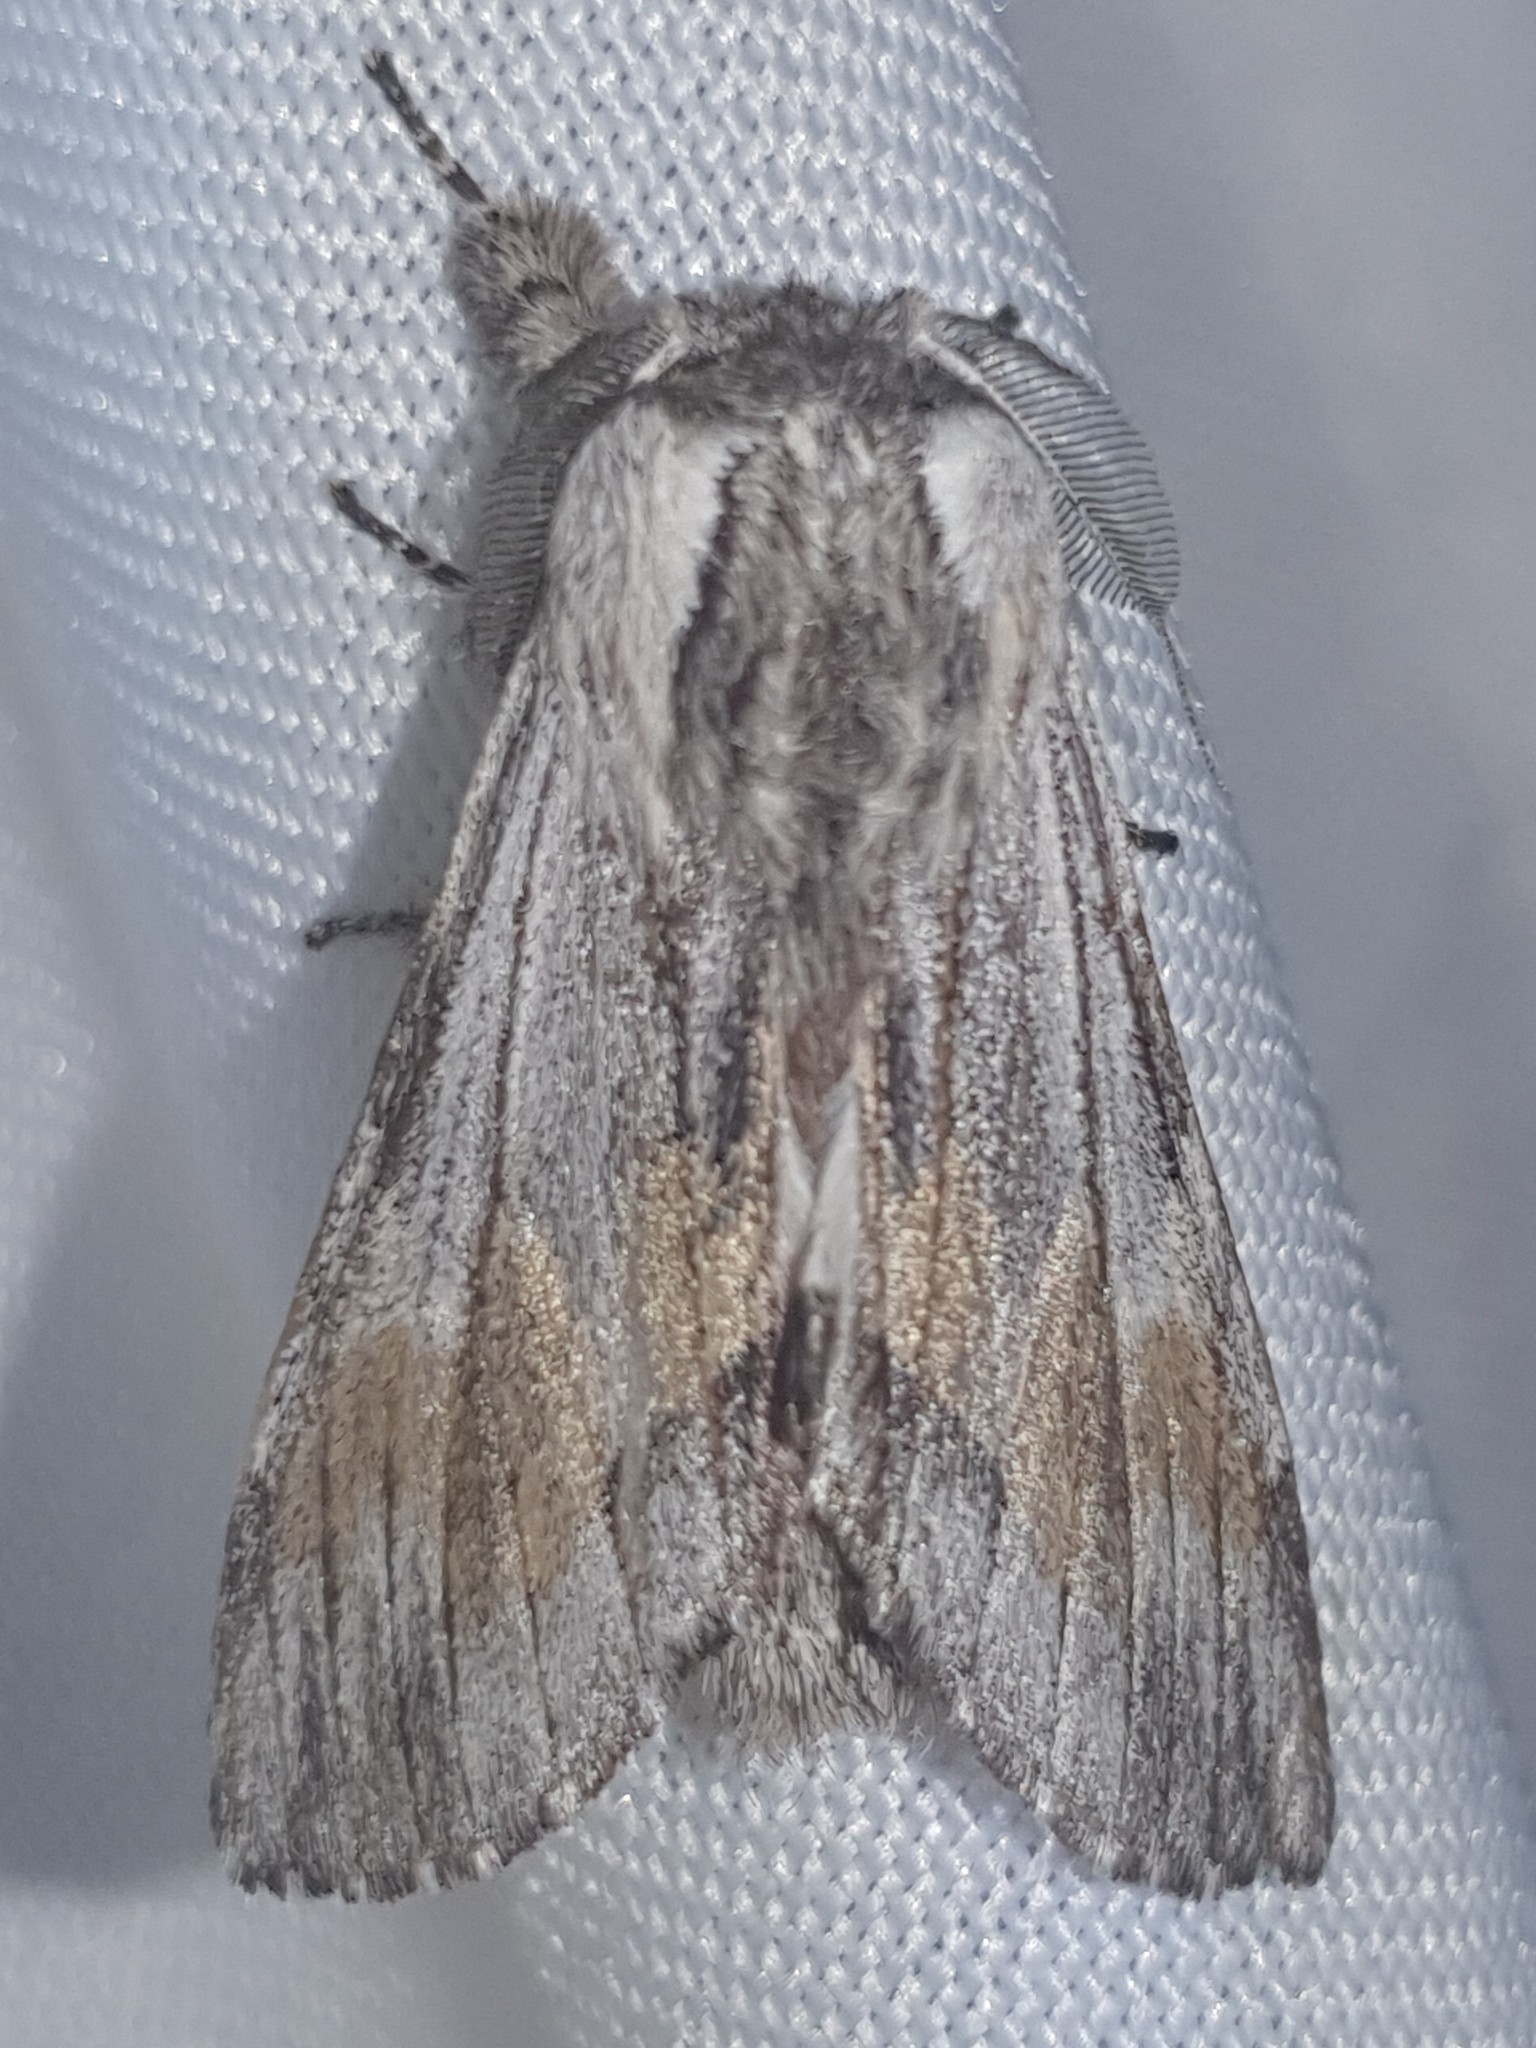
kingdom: Animalia
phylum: Arthropoda
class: Insecta
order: Lepidoptera
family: Notodontidae
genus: Harpyia
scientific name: Harpyia milhauseri
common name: Tawny prominent
